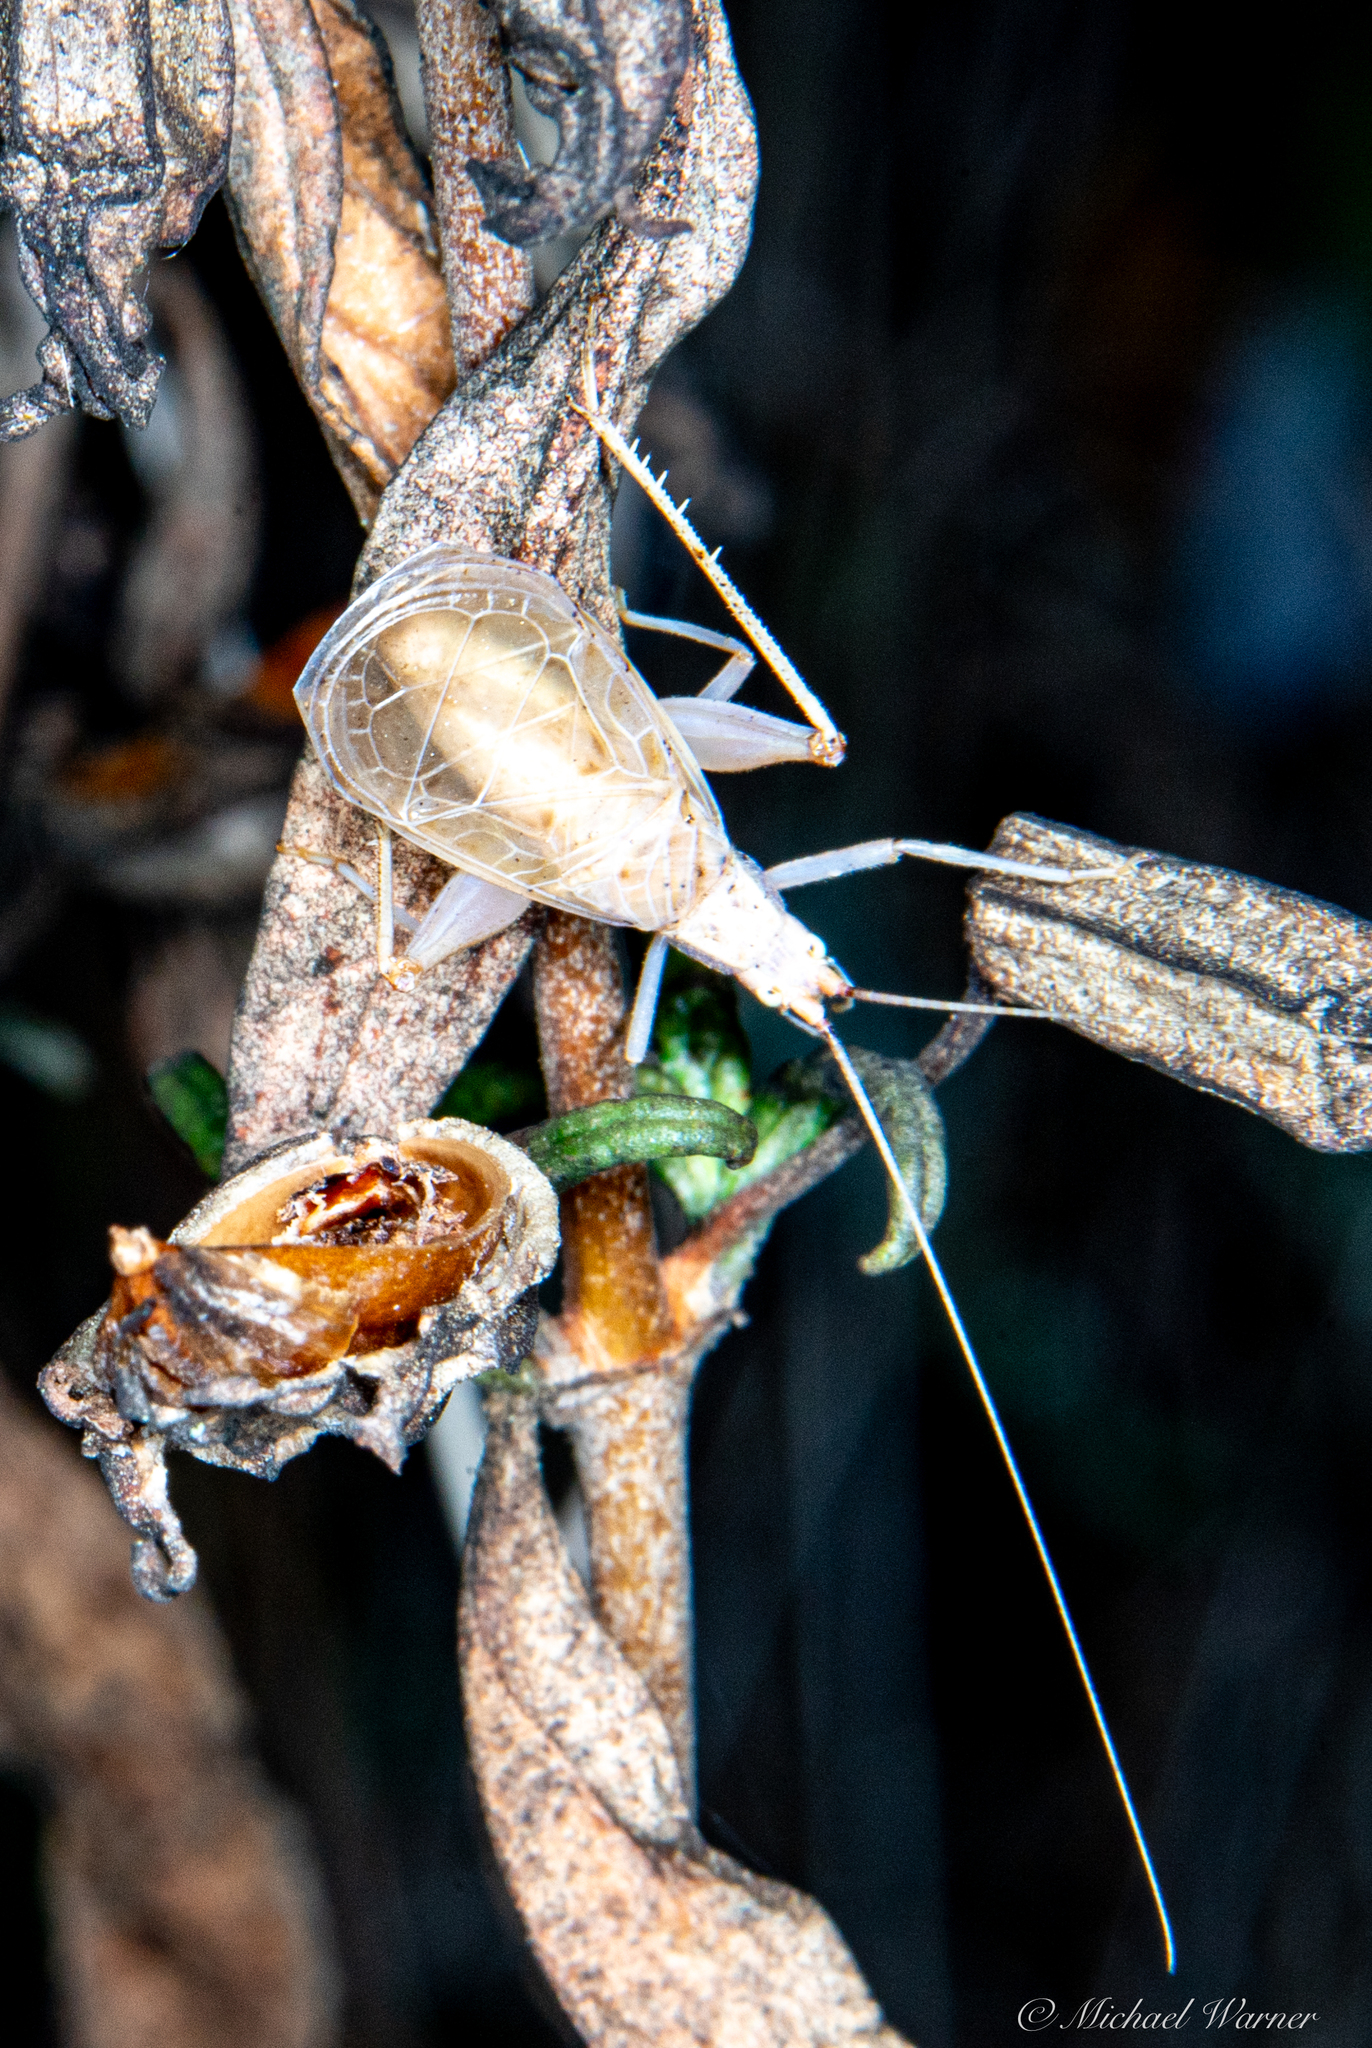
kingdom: Animalia
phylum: Arthropoda
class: Insecta
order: Orthoptera
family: Gryllidae
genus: Oecanthus
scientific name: Oecanthus californicus
